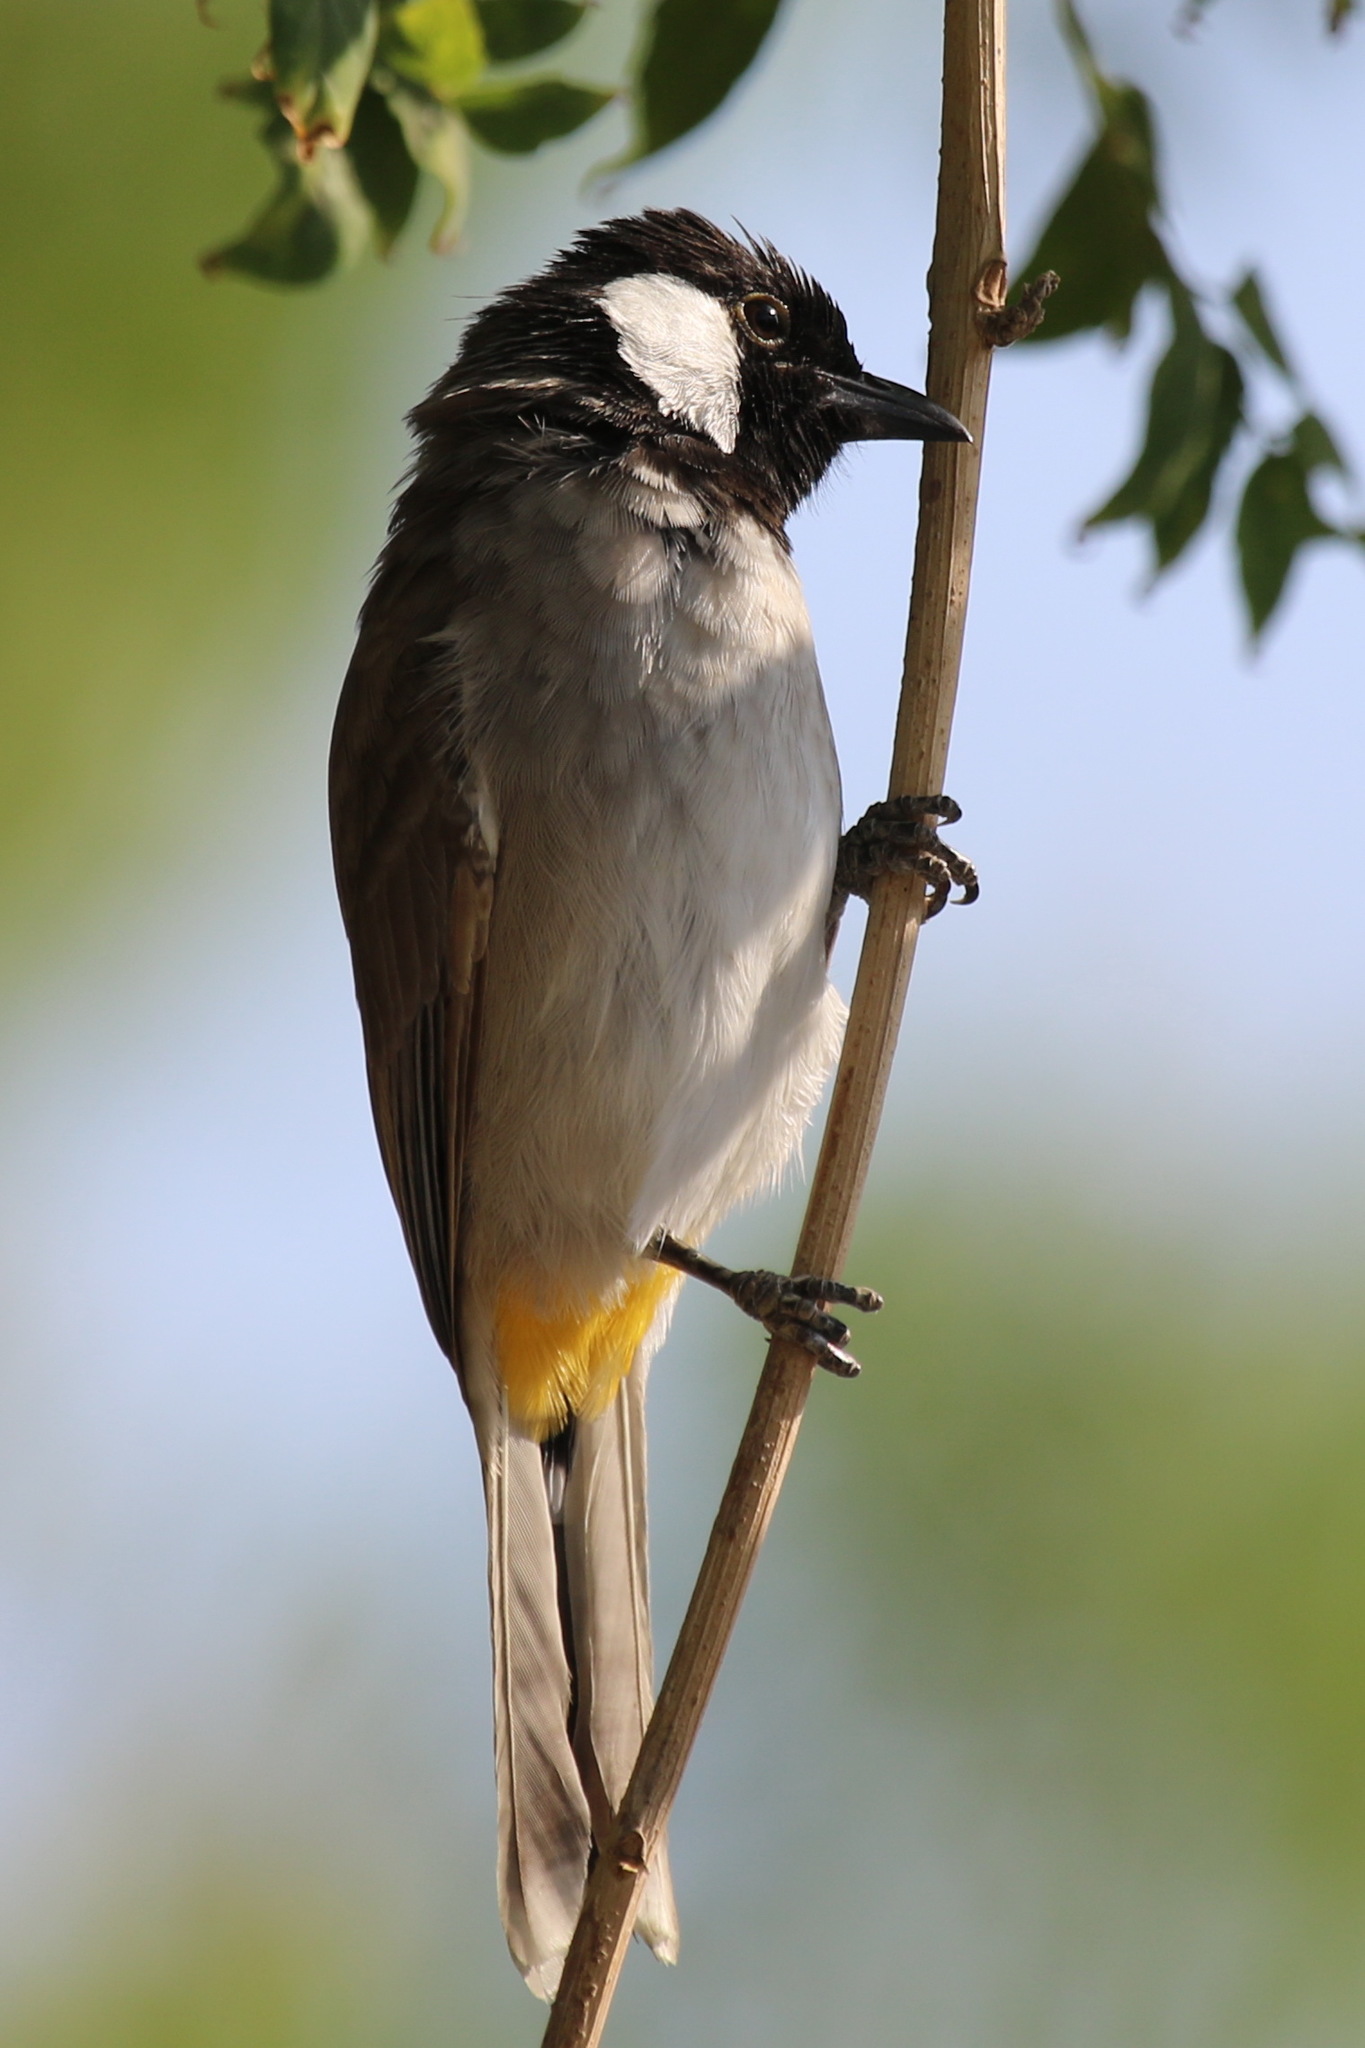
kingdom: Animalia
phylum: Chordata
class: Aves
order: Passeriformes
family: Pycnonotidae
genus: Pycnonotus
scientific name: Pycnonotus leucotis
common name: White-eared bulbul
